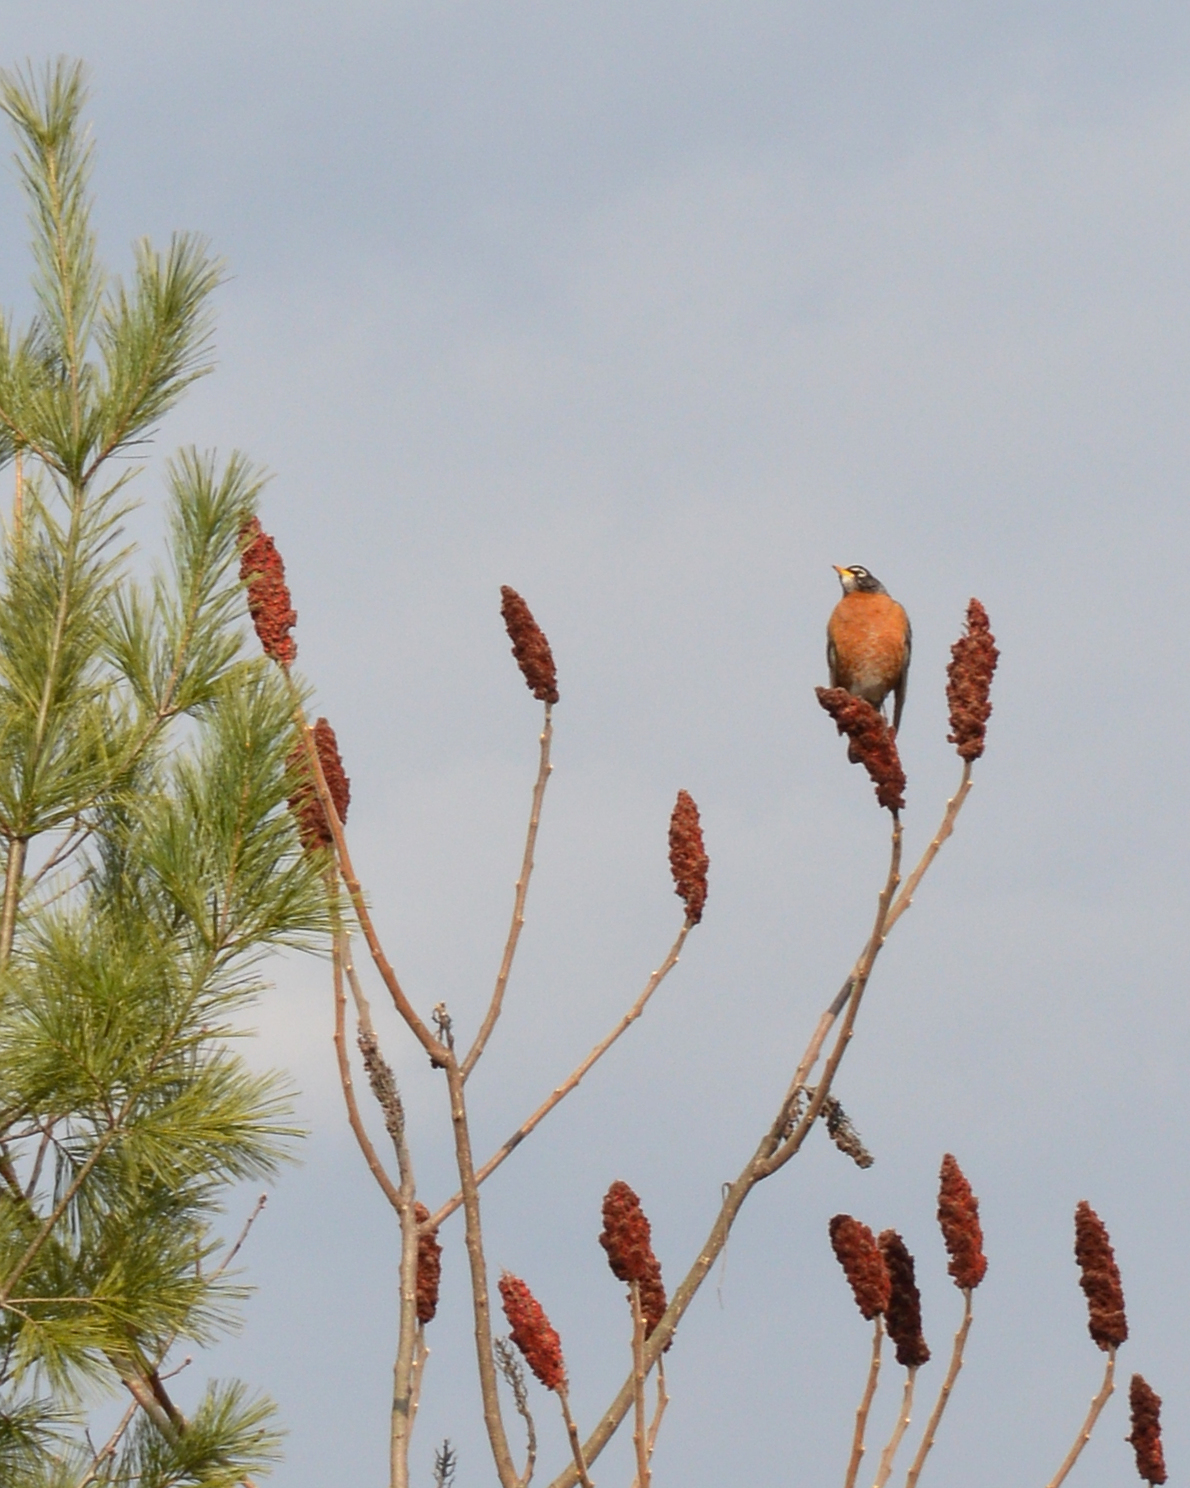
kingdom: Animalia
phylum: Chordata
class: Aves
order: Passeriformes
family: Turdidae
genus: Turdus
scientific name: Turdus migratorius
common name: American robin
